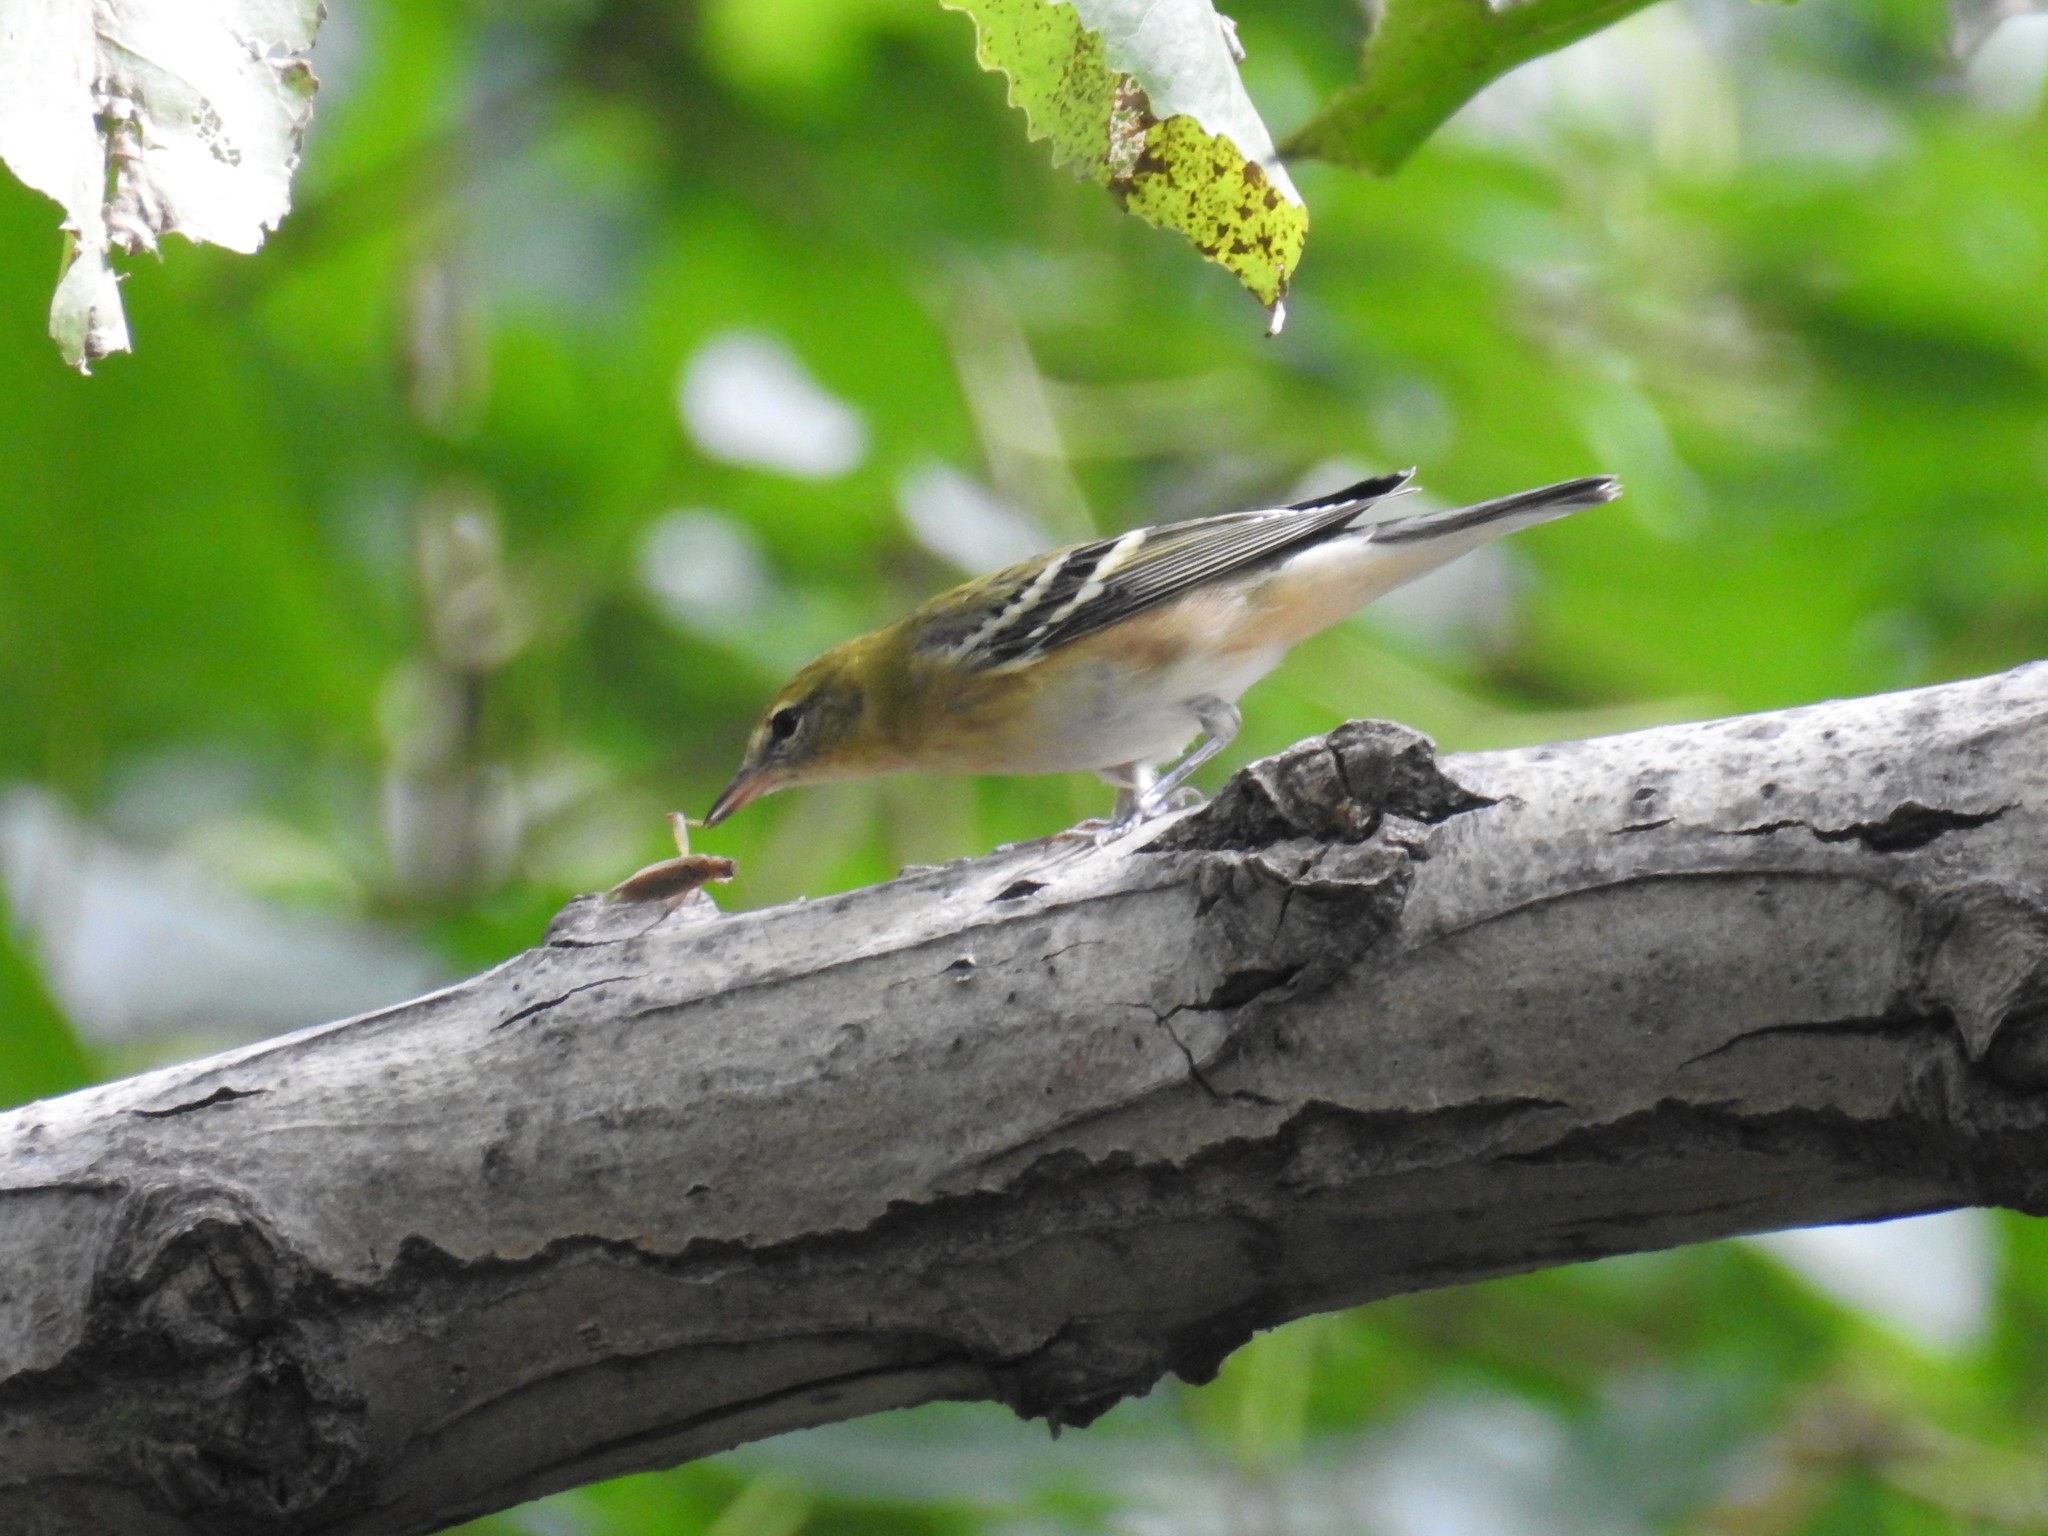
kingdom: Animalia
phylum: Chordata
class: Aves
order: Passeriformes
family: Parulidae
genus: Setophaga
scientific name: Setophaga castanea
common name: Bay-breasted warbler
